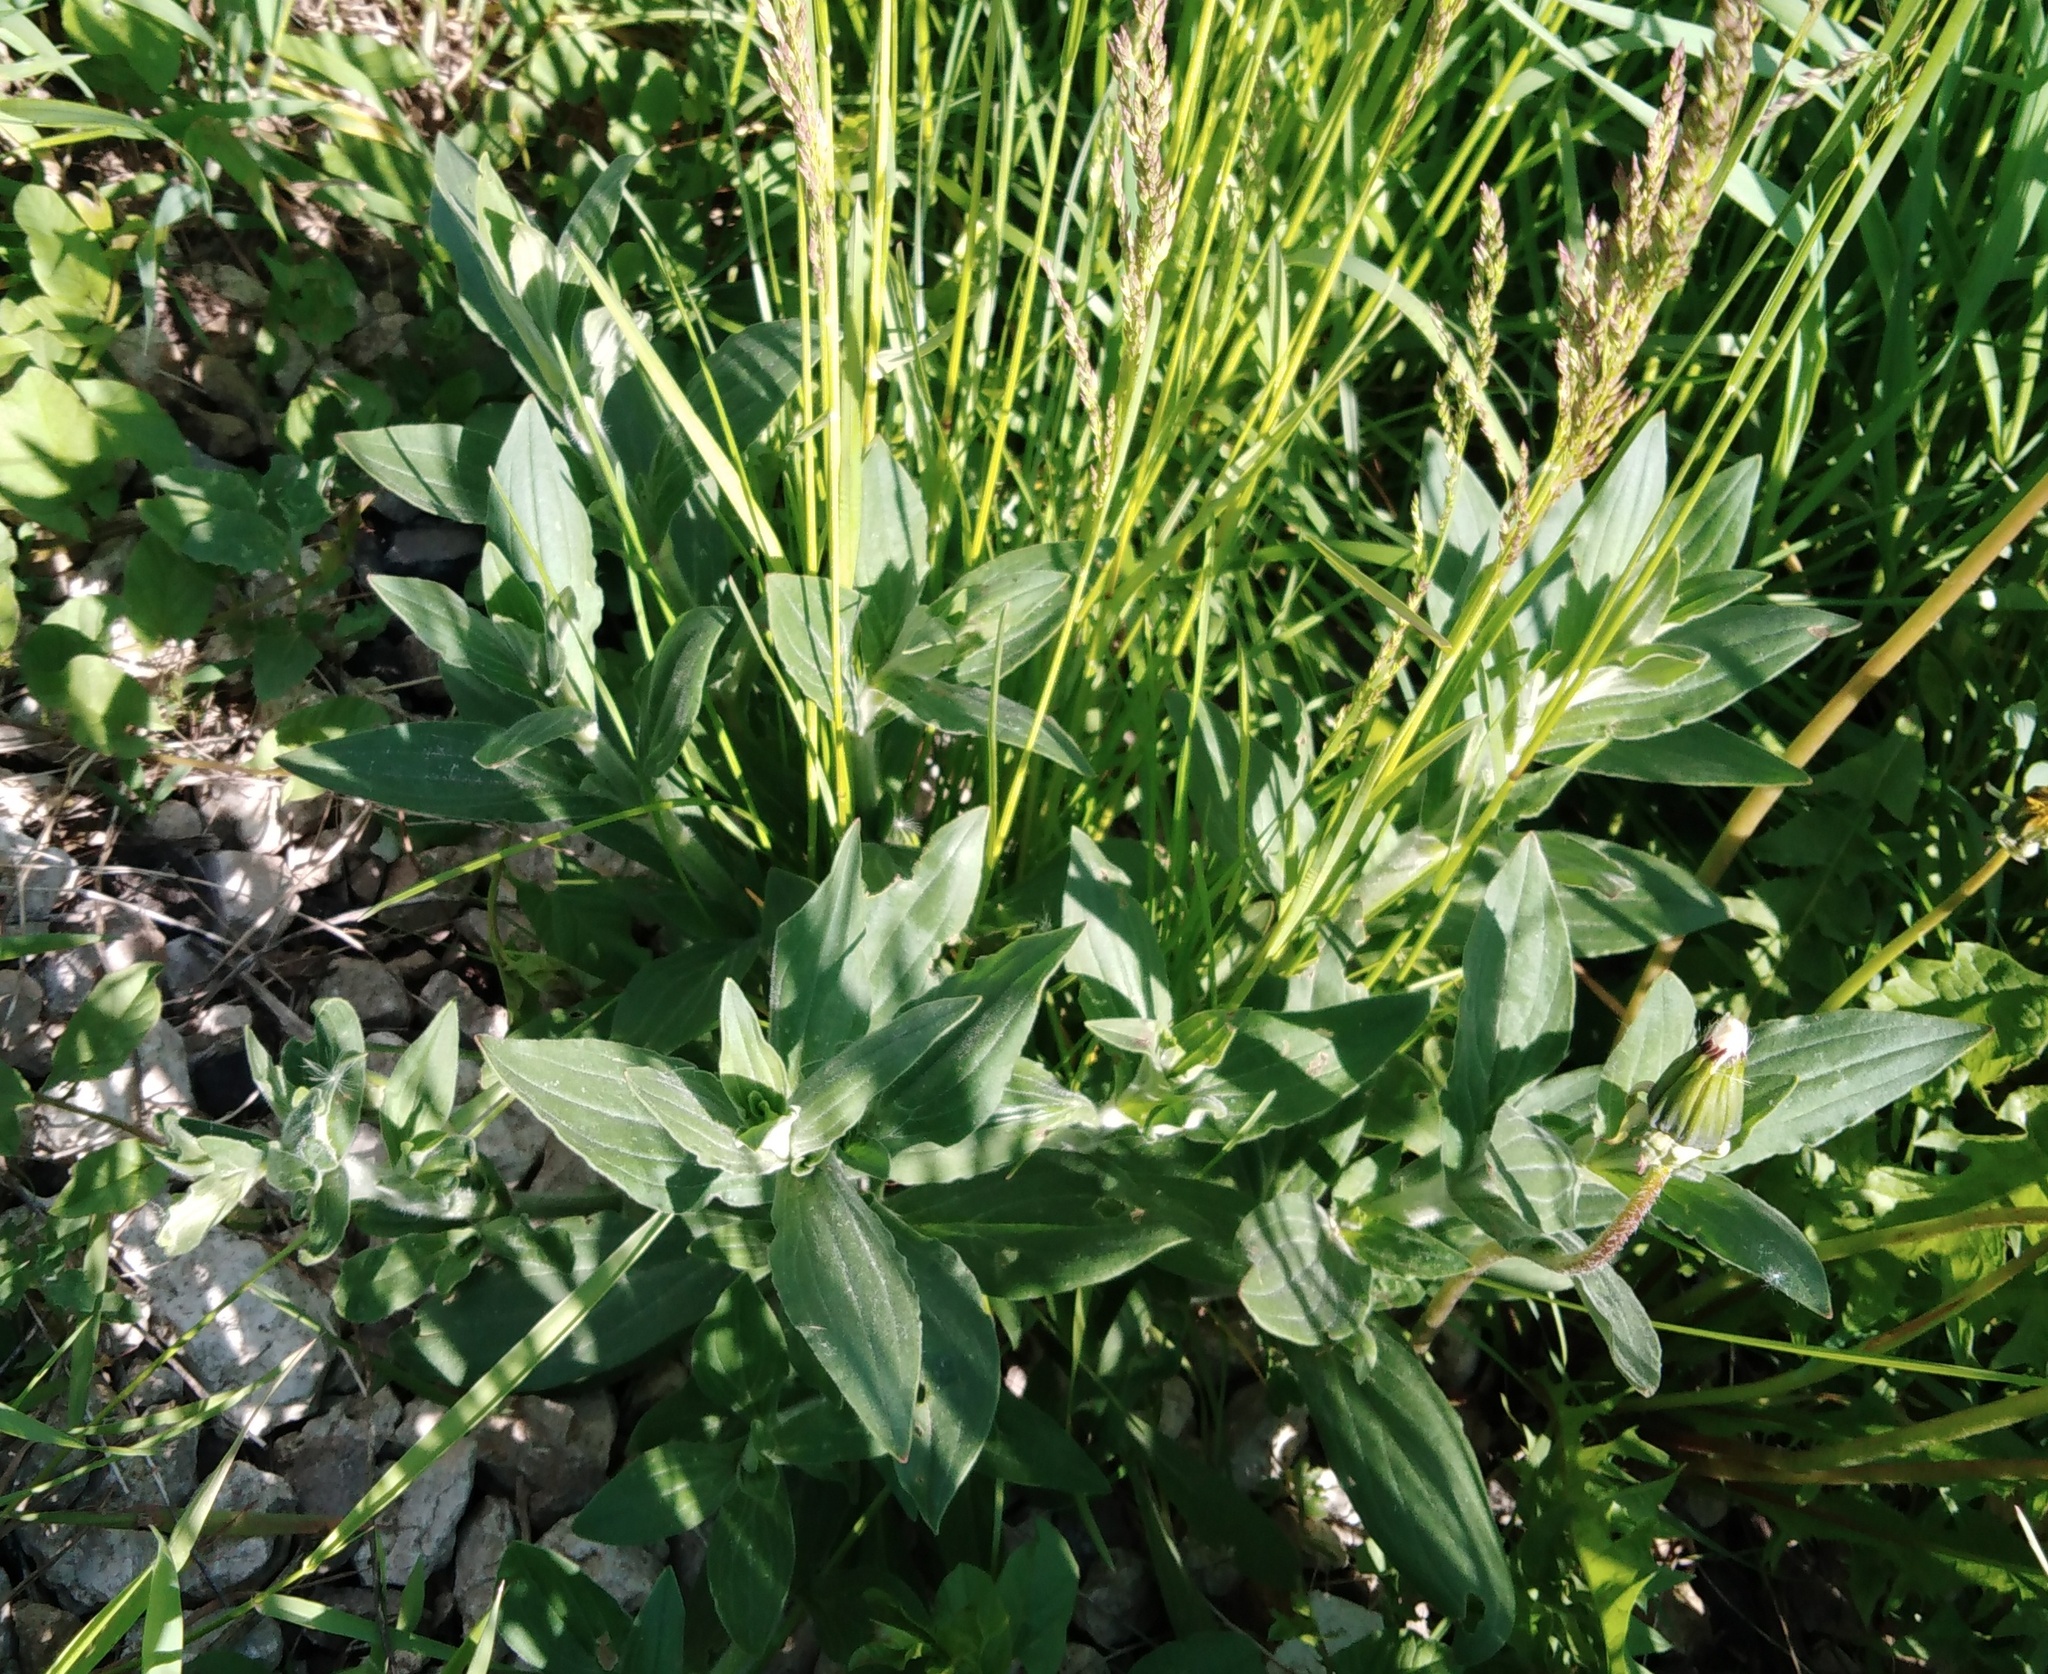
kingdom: Plantae
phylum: Tracheophyta
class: Magnoliopsida
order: Caryophyllales
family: Caryophyllaceae
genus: Silene
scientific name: Silene latifolia
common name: White campion
